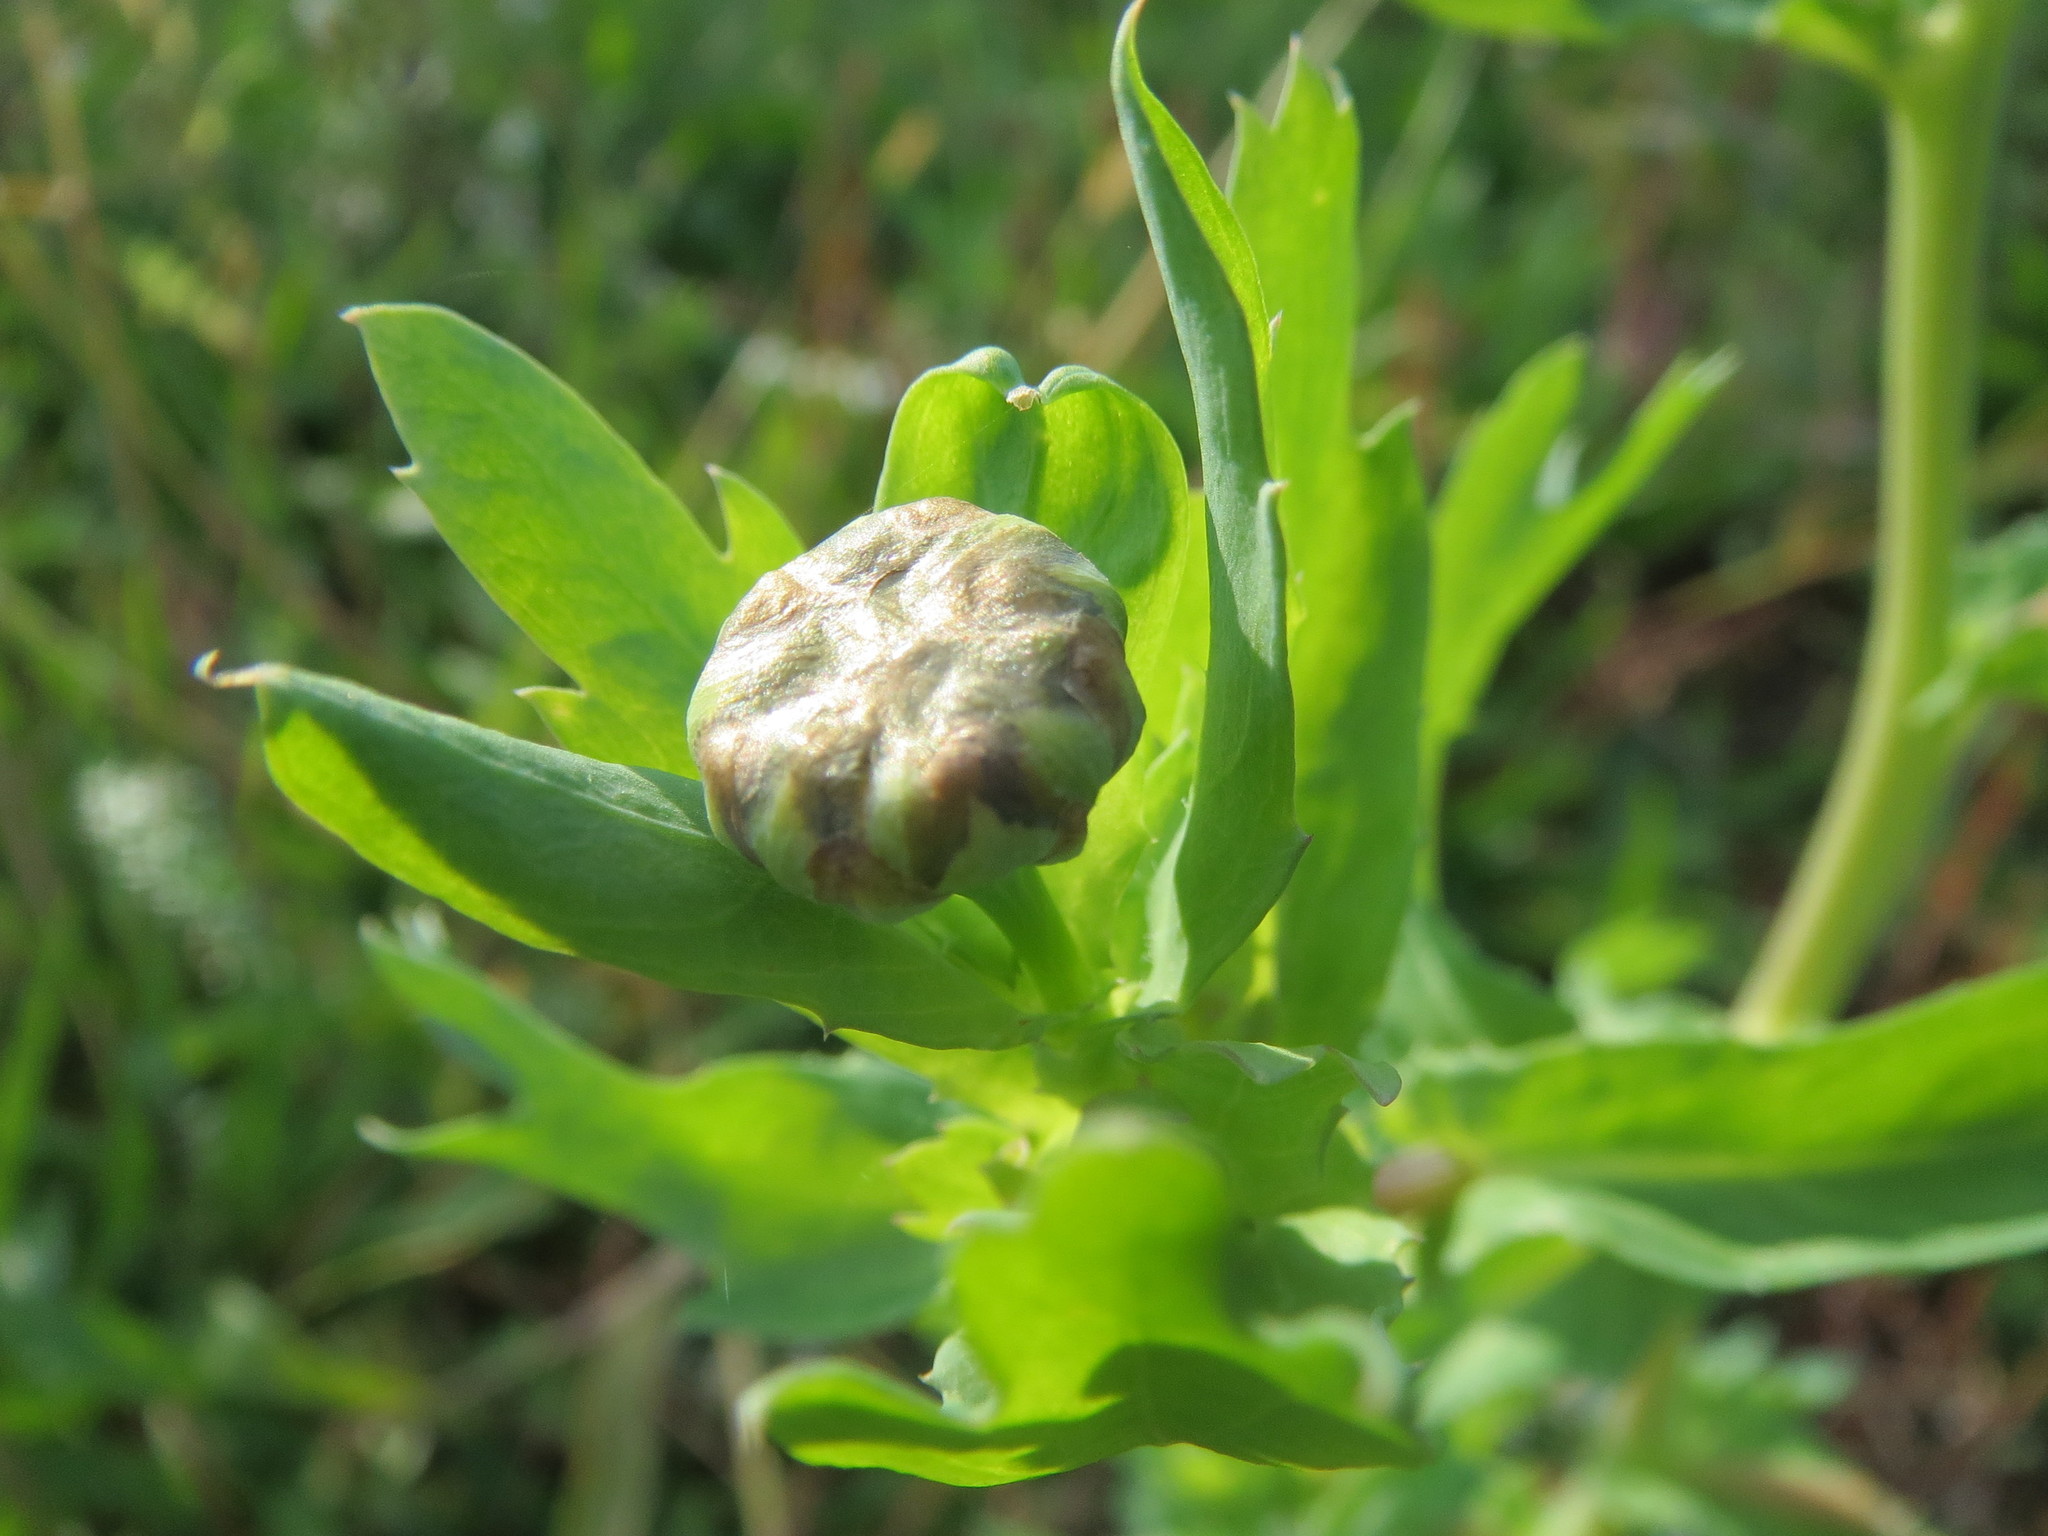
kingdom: Plantae
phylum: Tracheophyta
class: Magnoliopsida
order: Asterales
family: Asteraceae
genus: Glebionis
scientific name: Glebionis segetum
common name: Corndaisy
